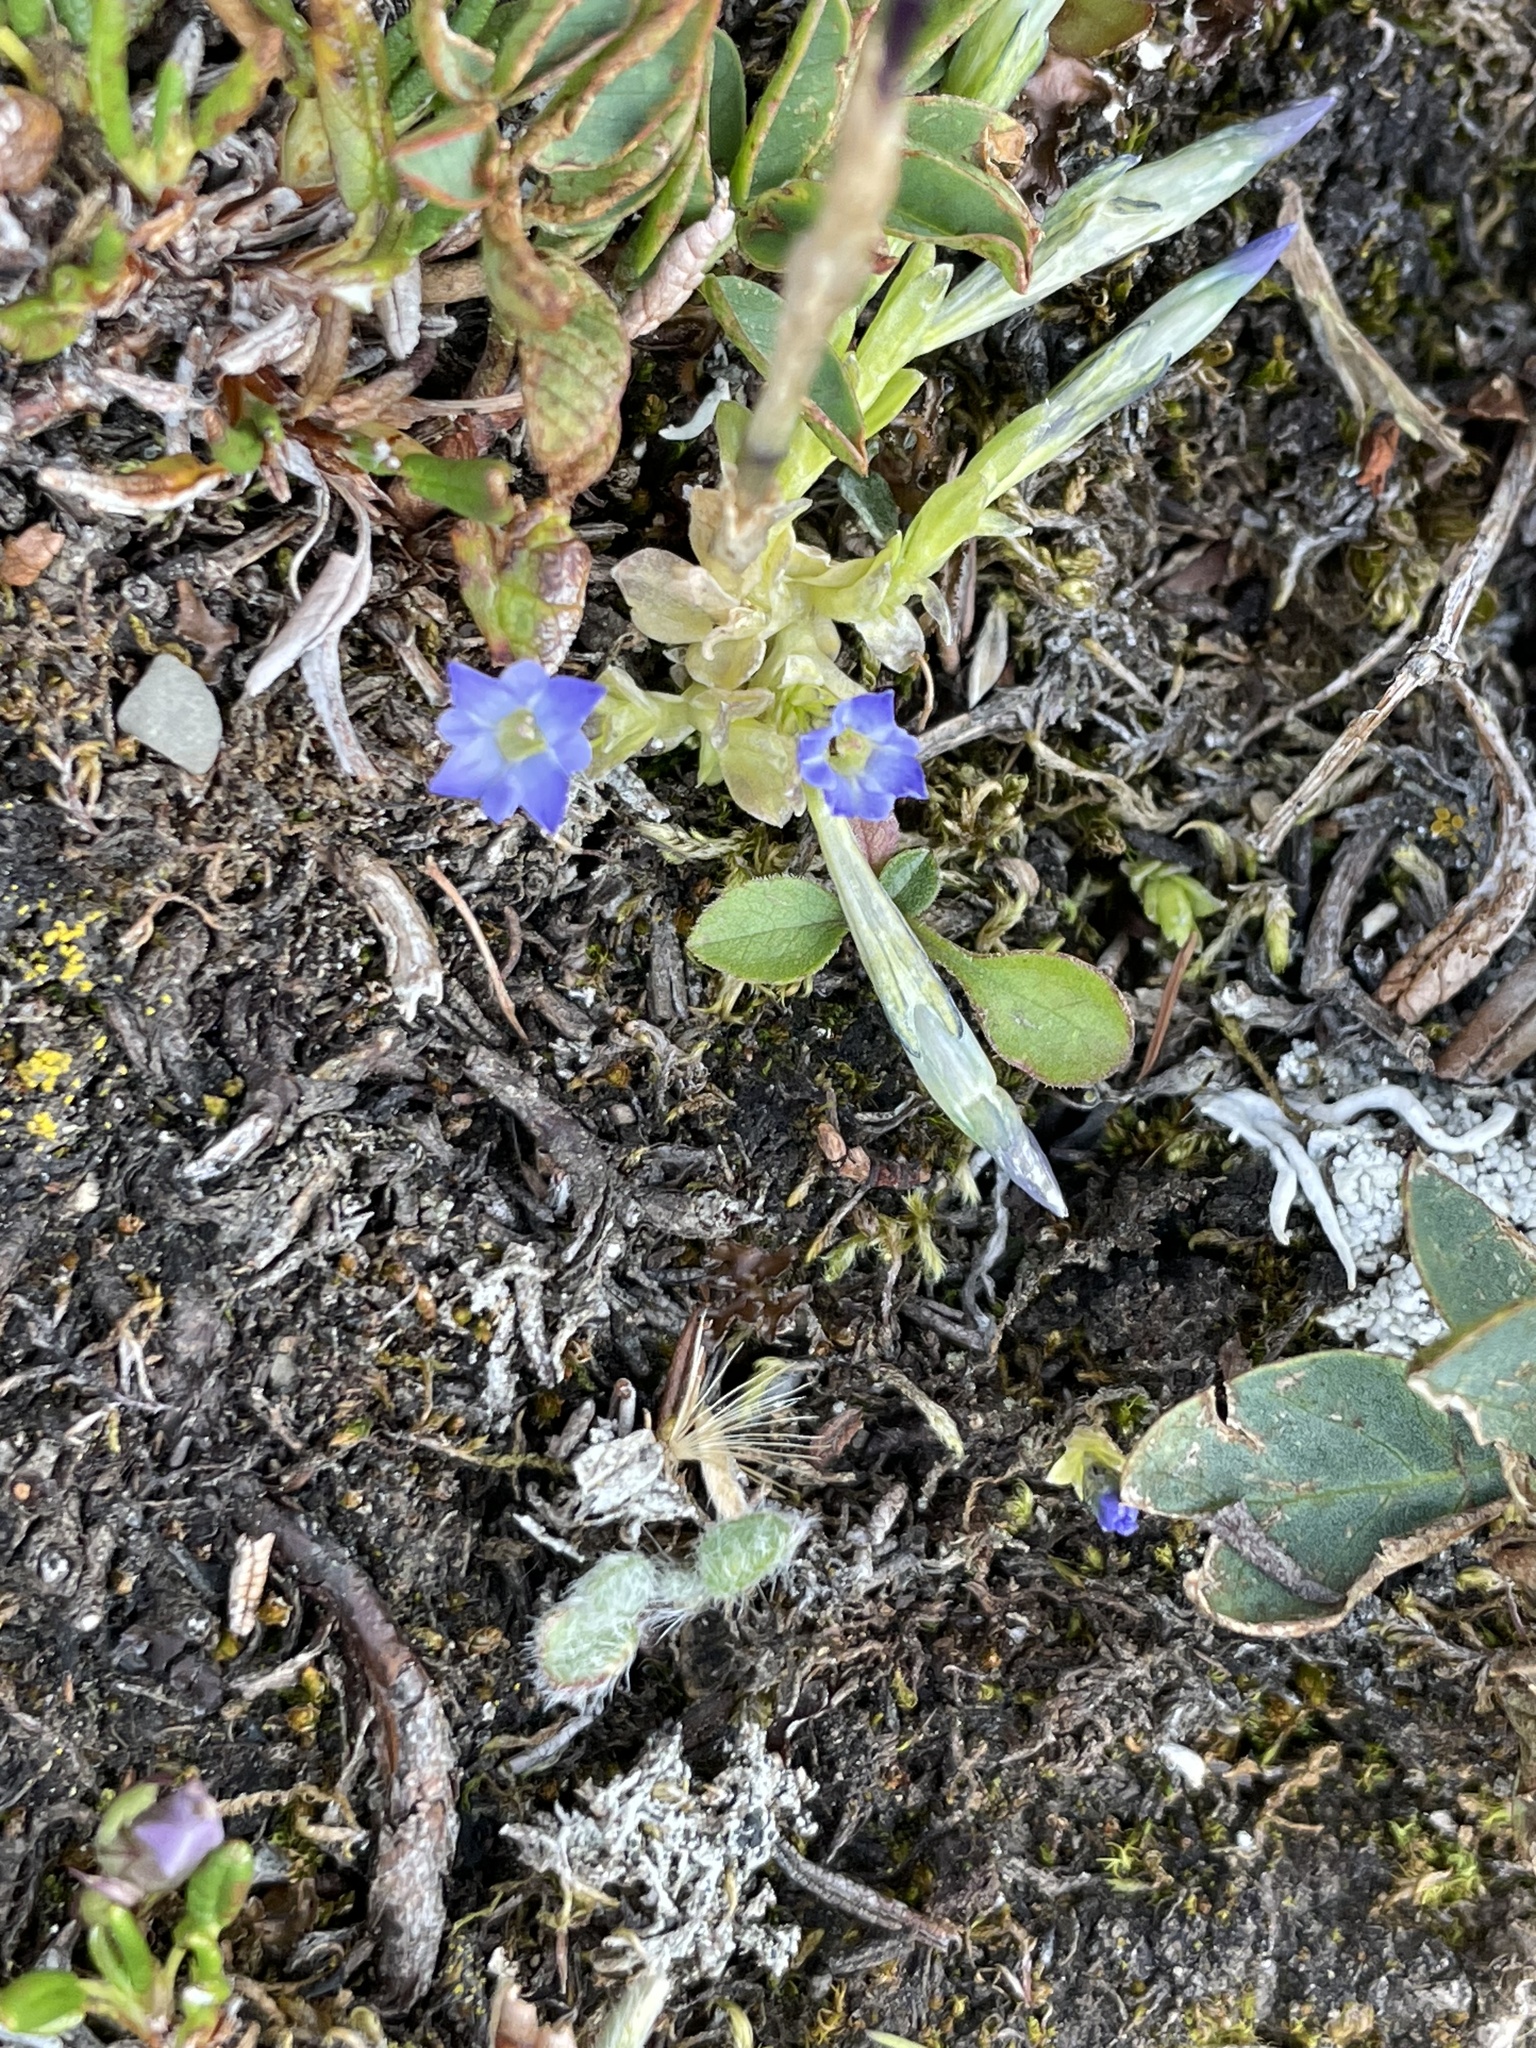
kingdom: Plantae
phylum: Tracheophyta
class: Magnoliopsida
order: Gentianales
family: Gentianaceae
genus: Gentiana
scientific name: Gentiana prostrata
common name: Moss gentian
